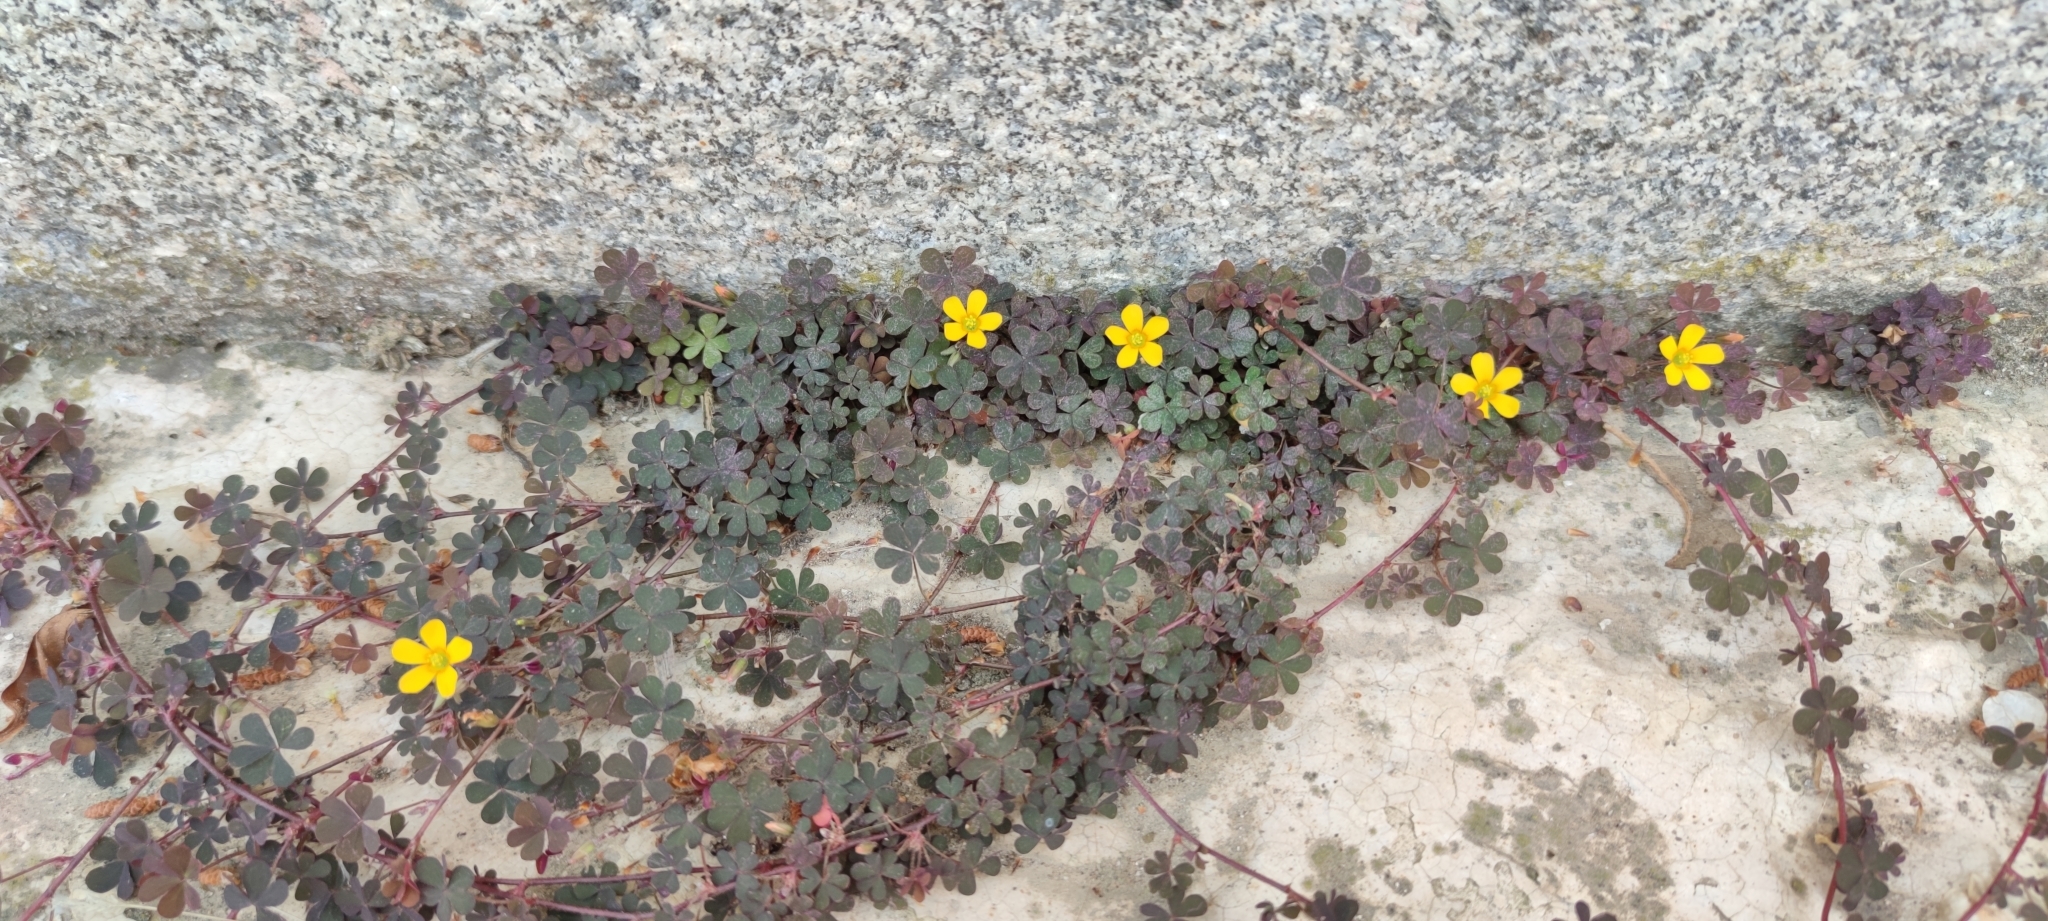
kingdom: Plantae
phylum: Tracheophyta
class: Magnoliopsida
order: Oxalidales
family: Oxalidaceae
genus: Oxalis
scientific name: Oxalis corniculata
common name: Procumbent yellow-sorrel
